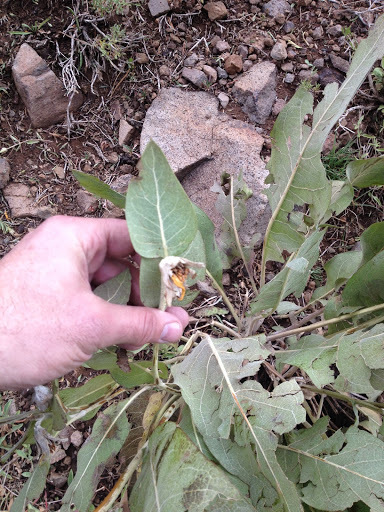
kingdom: Plantae
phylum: Tracheophyta
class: Magnoliopsida
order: Asterales
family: Asteraceae
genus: Wyethia
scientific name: Wyethia mollis
